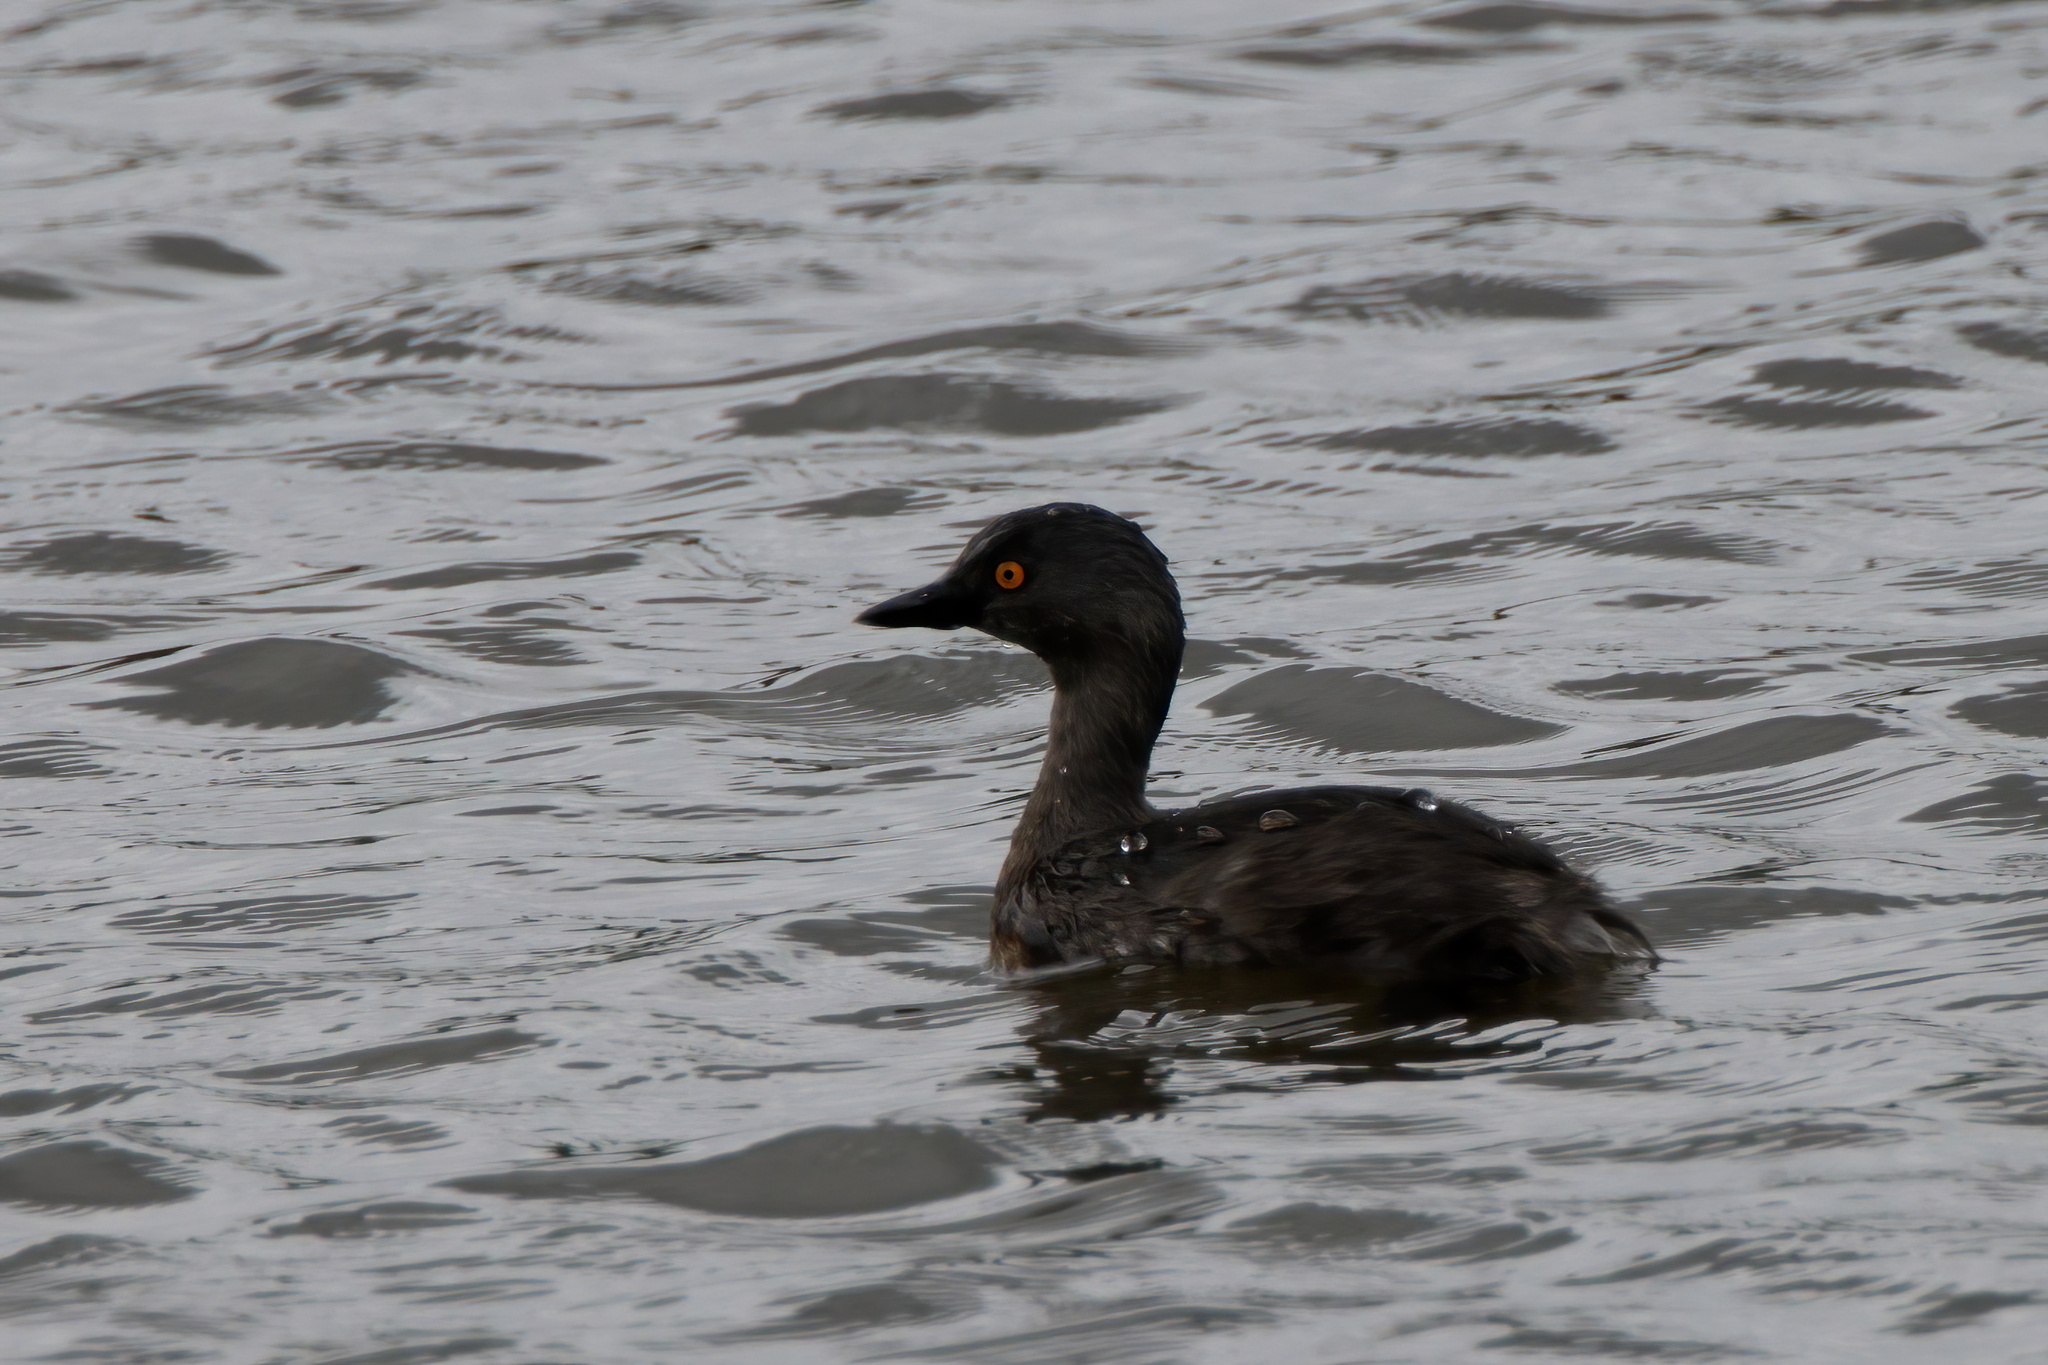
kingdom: Animalia
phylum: Chordata
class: Aves
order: Podicipediformes
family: Podicipedidae
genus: Tachybaptus
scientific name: Tachybaptus dominicus
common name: Least grebe
